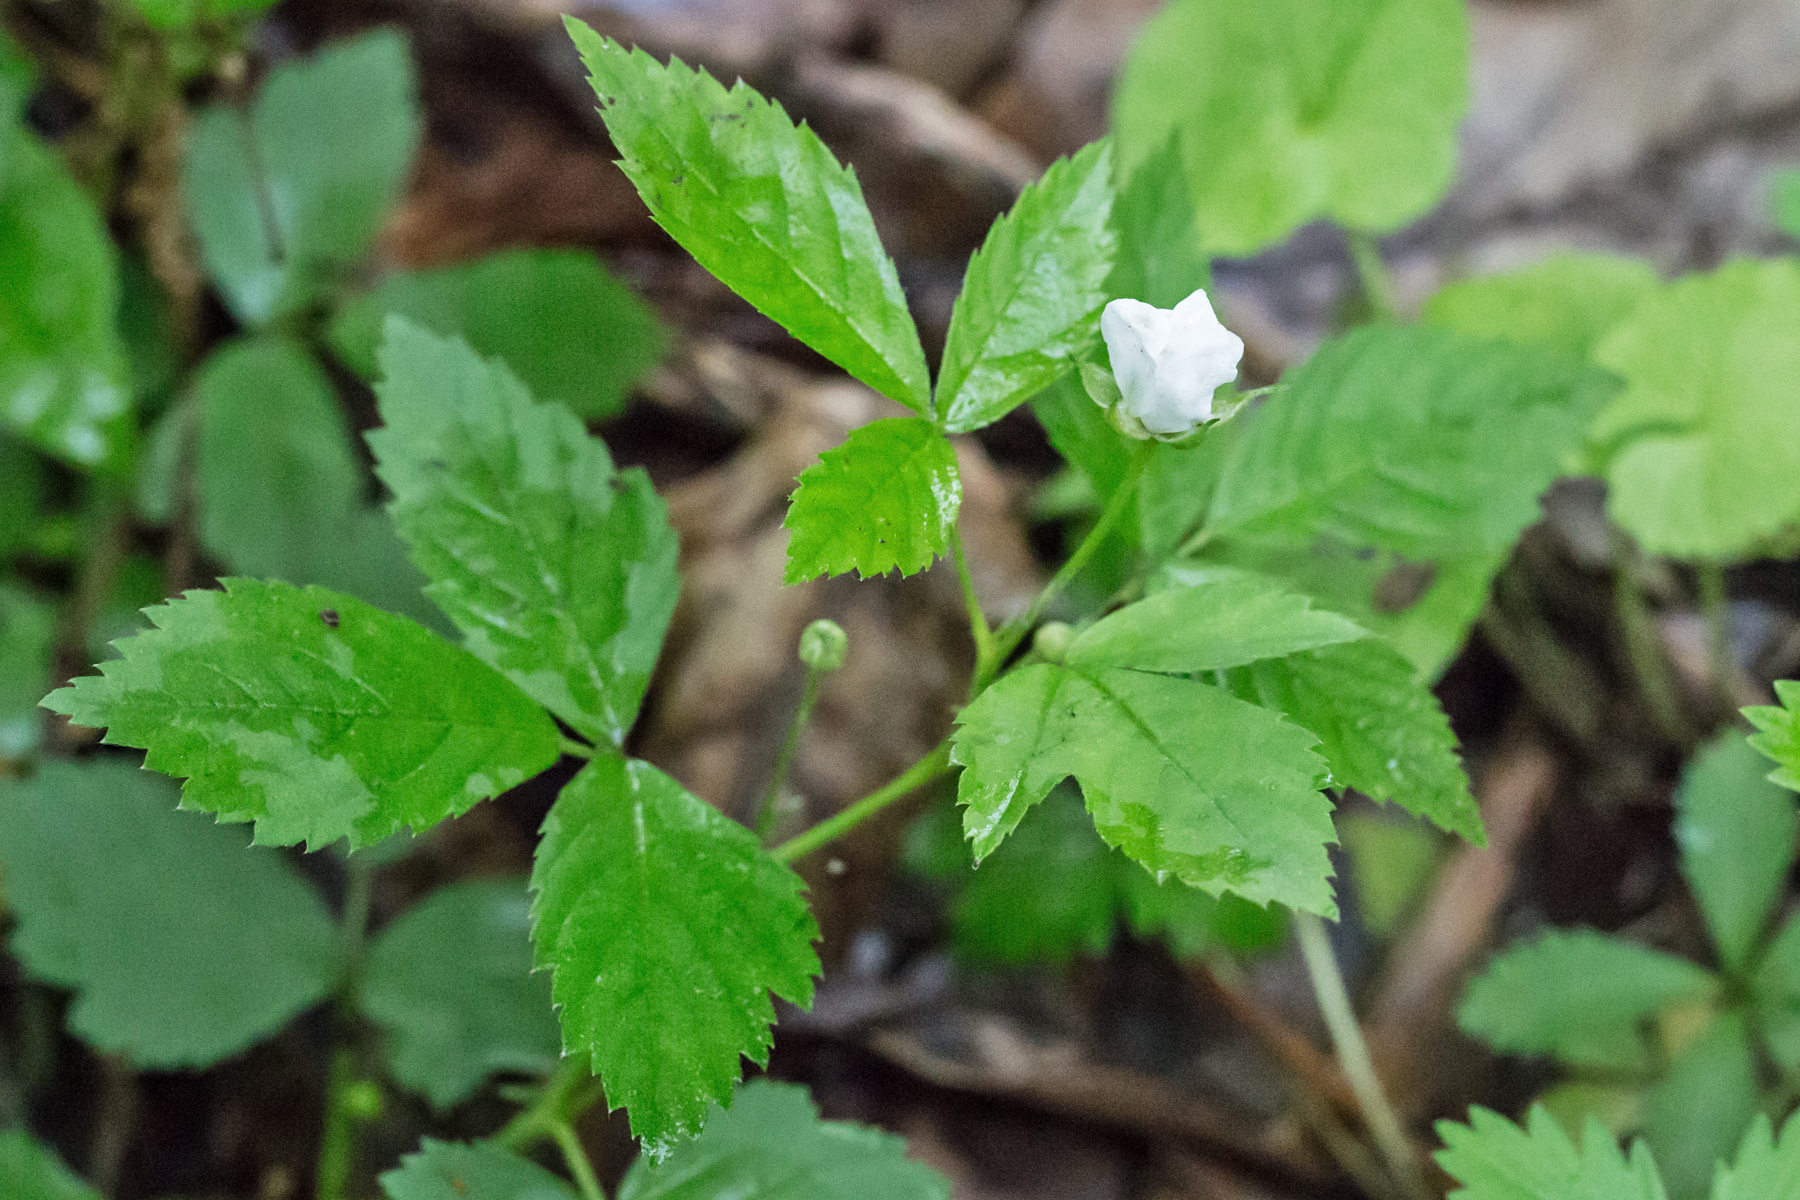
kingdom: Plantae
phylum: Tracheophyta
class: Magnoliopsida
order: Rosales
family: Rosaceae
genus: Rubus
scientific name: Rubus flagellaris
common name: American dewberry
